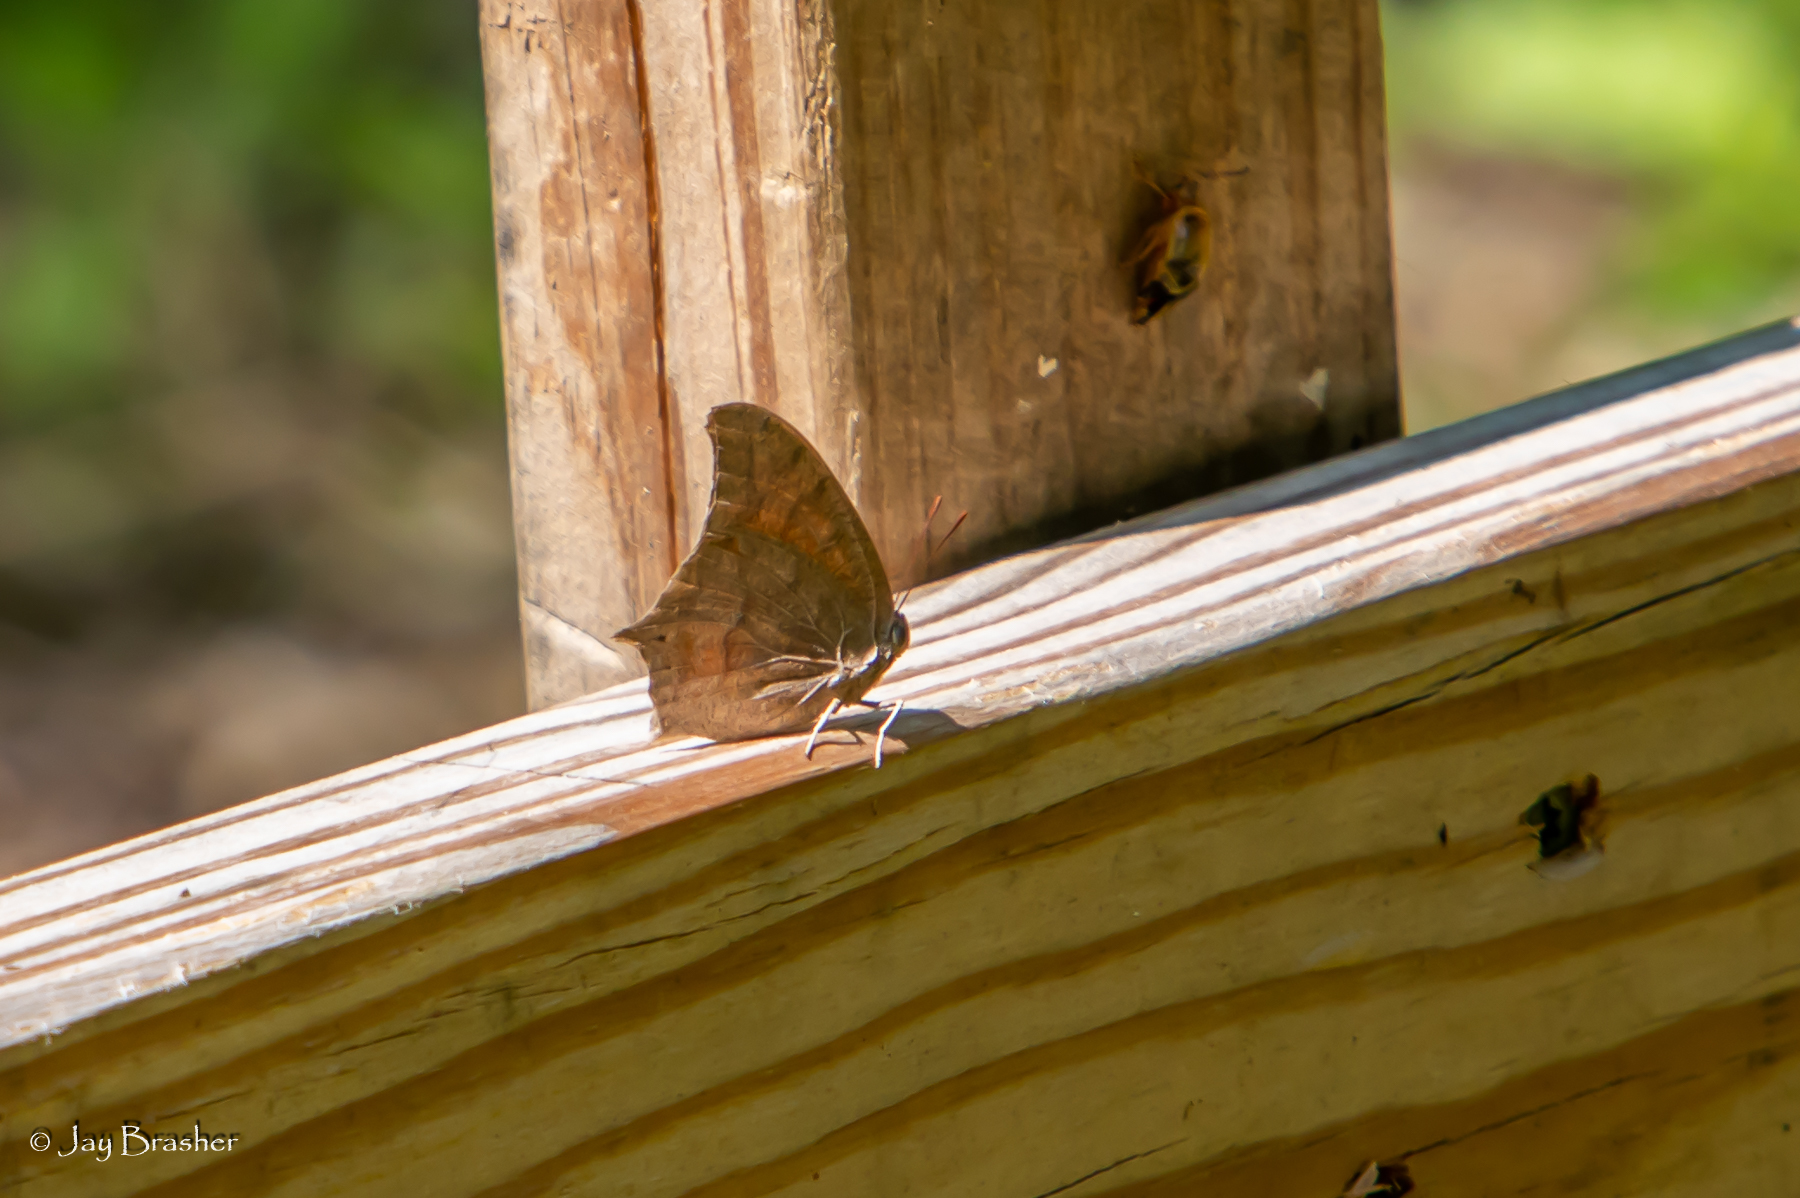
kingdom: Animalia
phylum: Arthropoda
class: Insecta
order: Lepidoptera
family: Nymphalidae
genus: Anaea
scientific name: Anaea andria
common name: Goatweed leafwing
